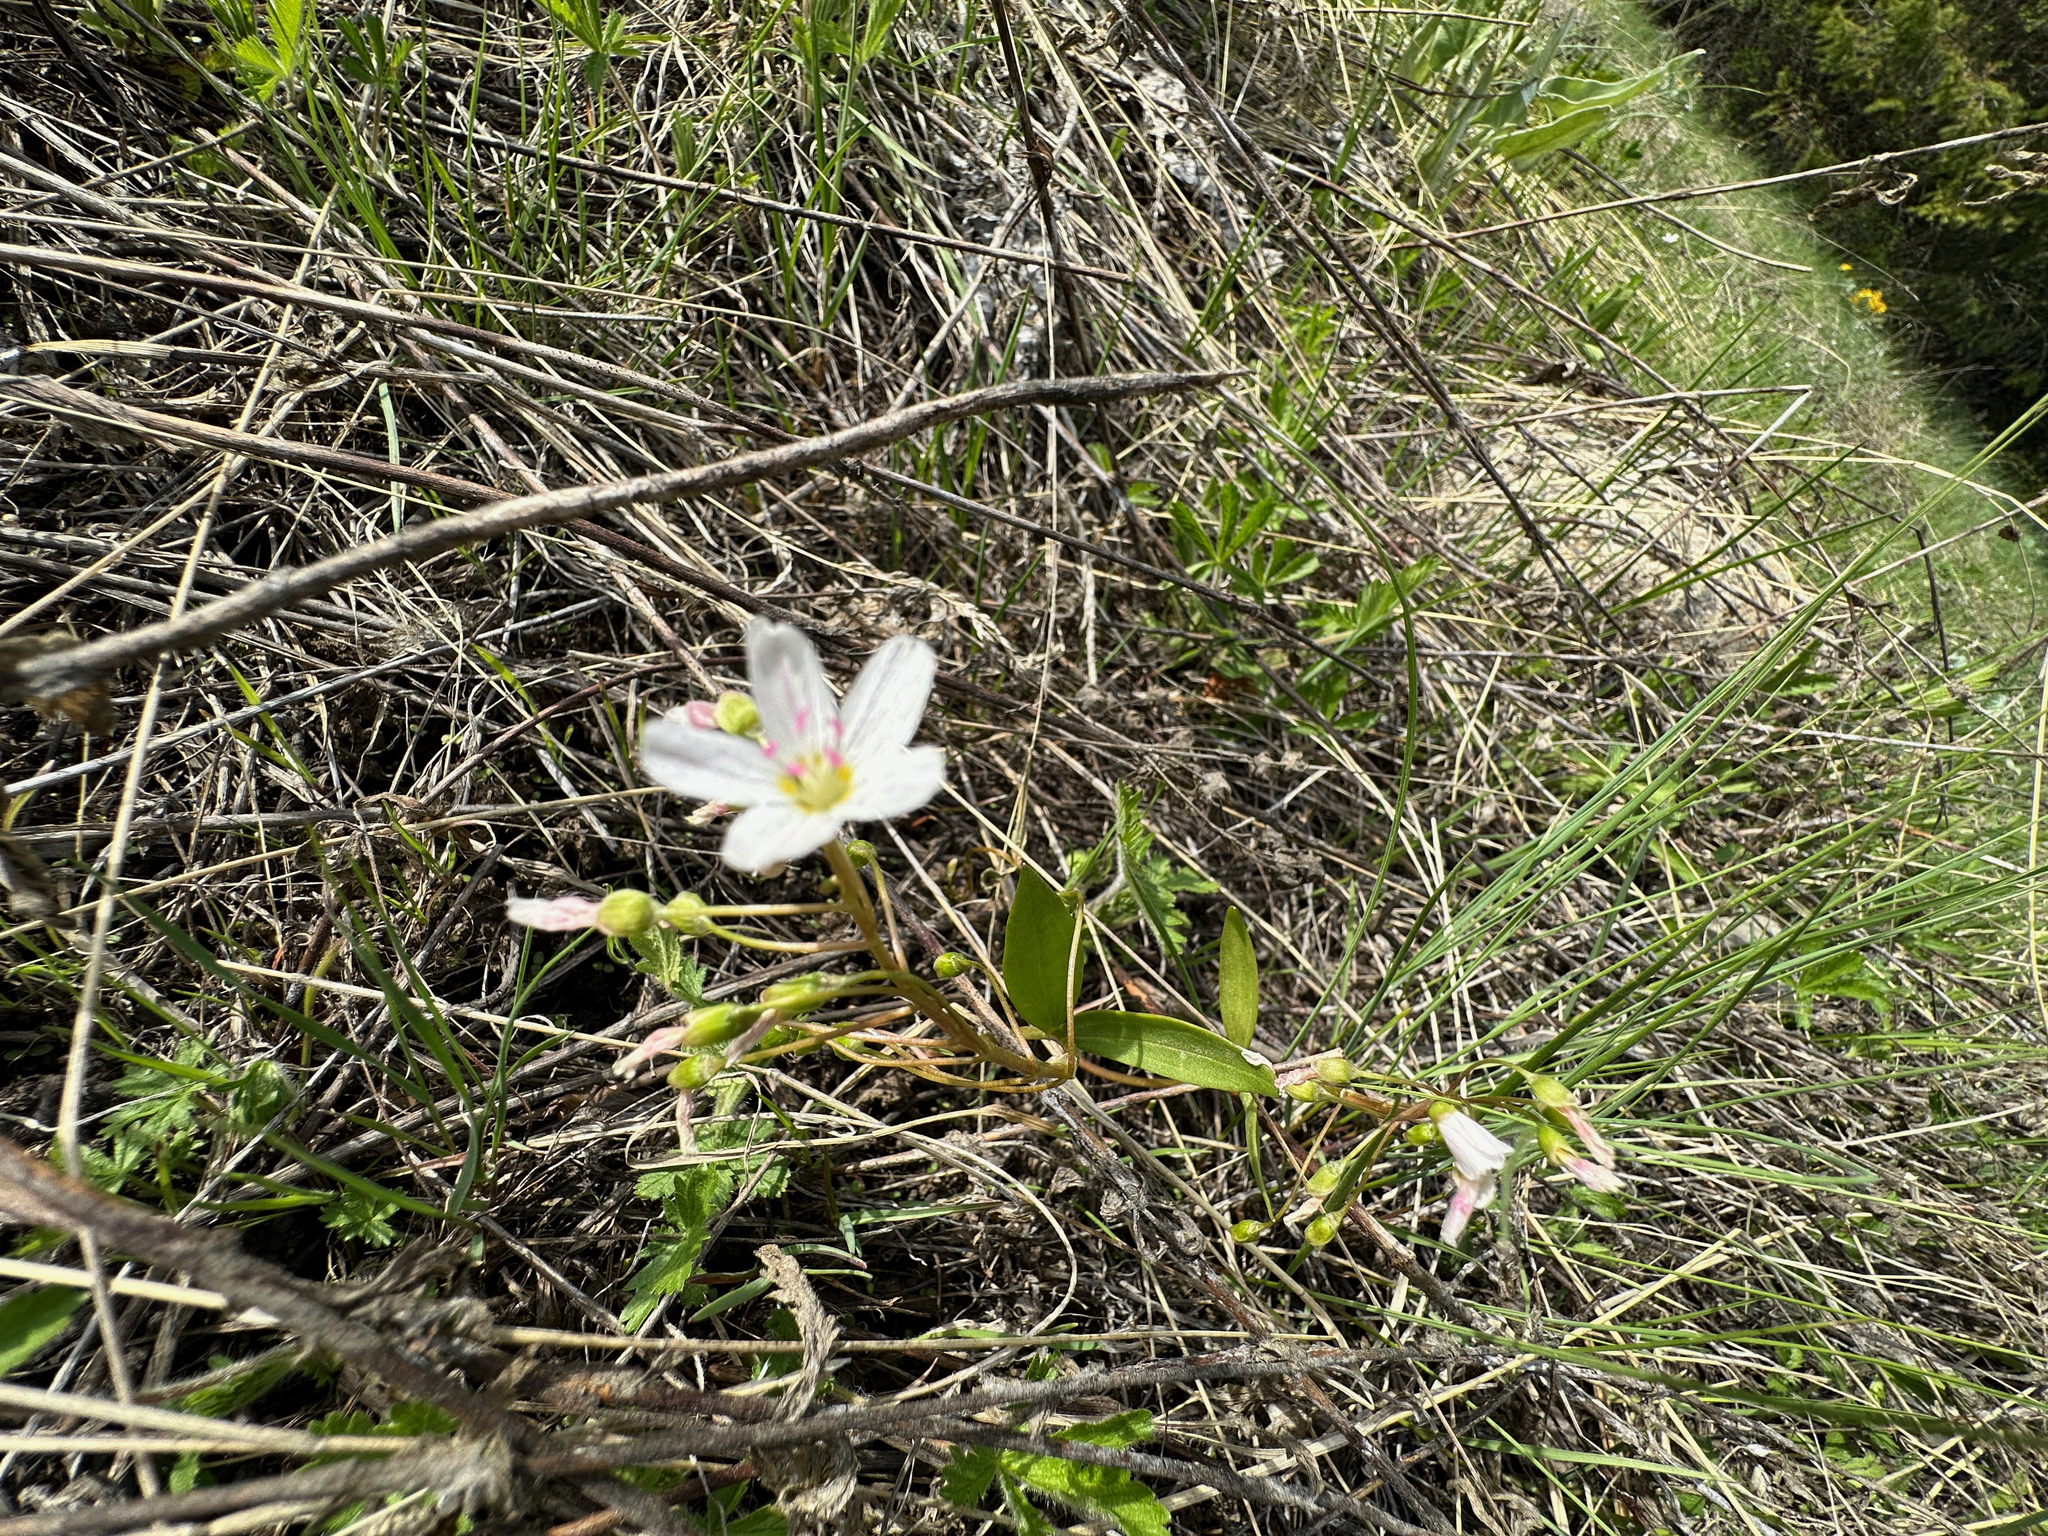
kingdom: Plantae
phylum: Tracheophyta
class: Magnoliopsida
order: Caryophyllales
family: Montiaceae
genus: Claytonia
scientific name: Claytonia lanceolata
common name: Western spring-beauty
